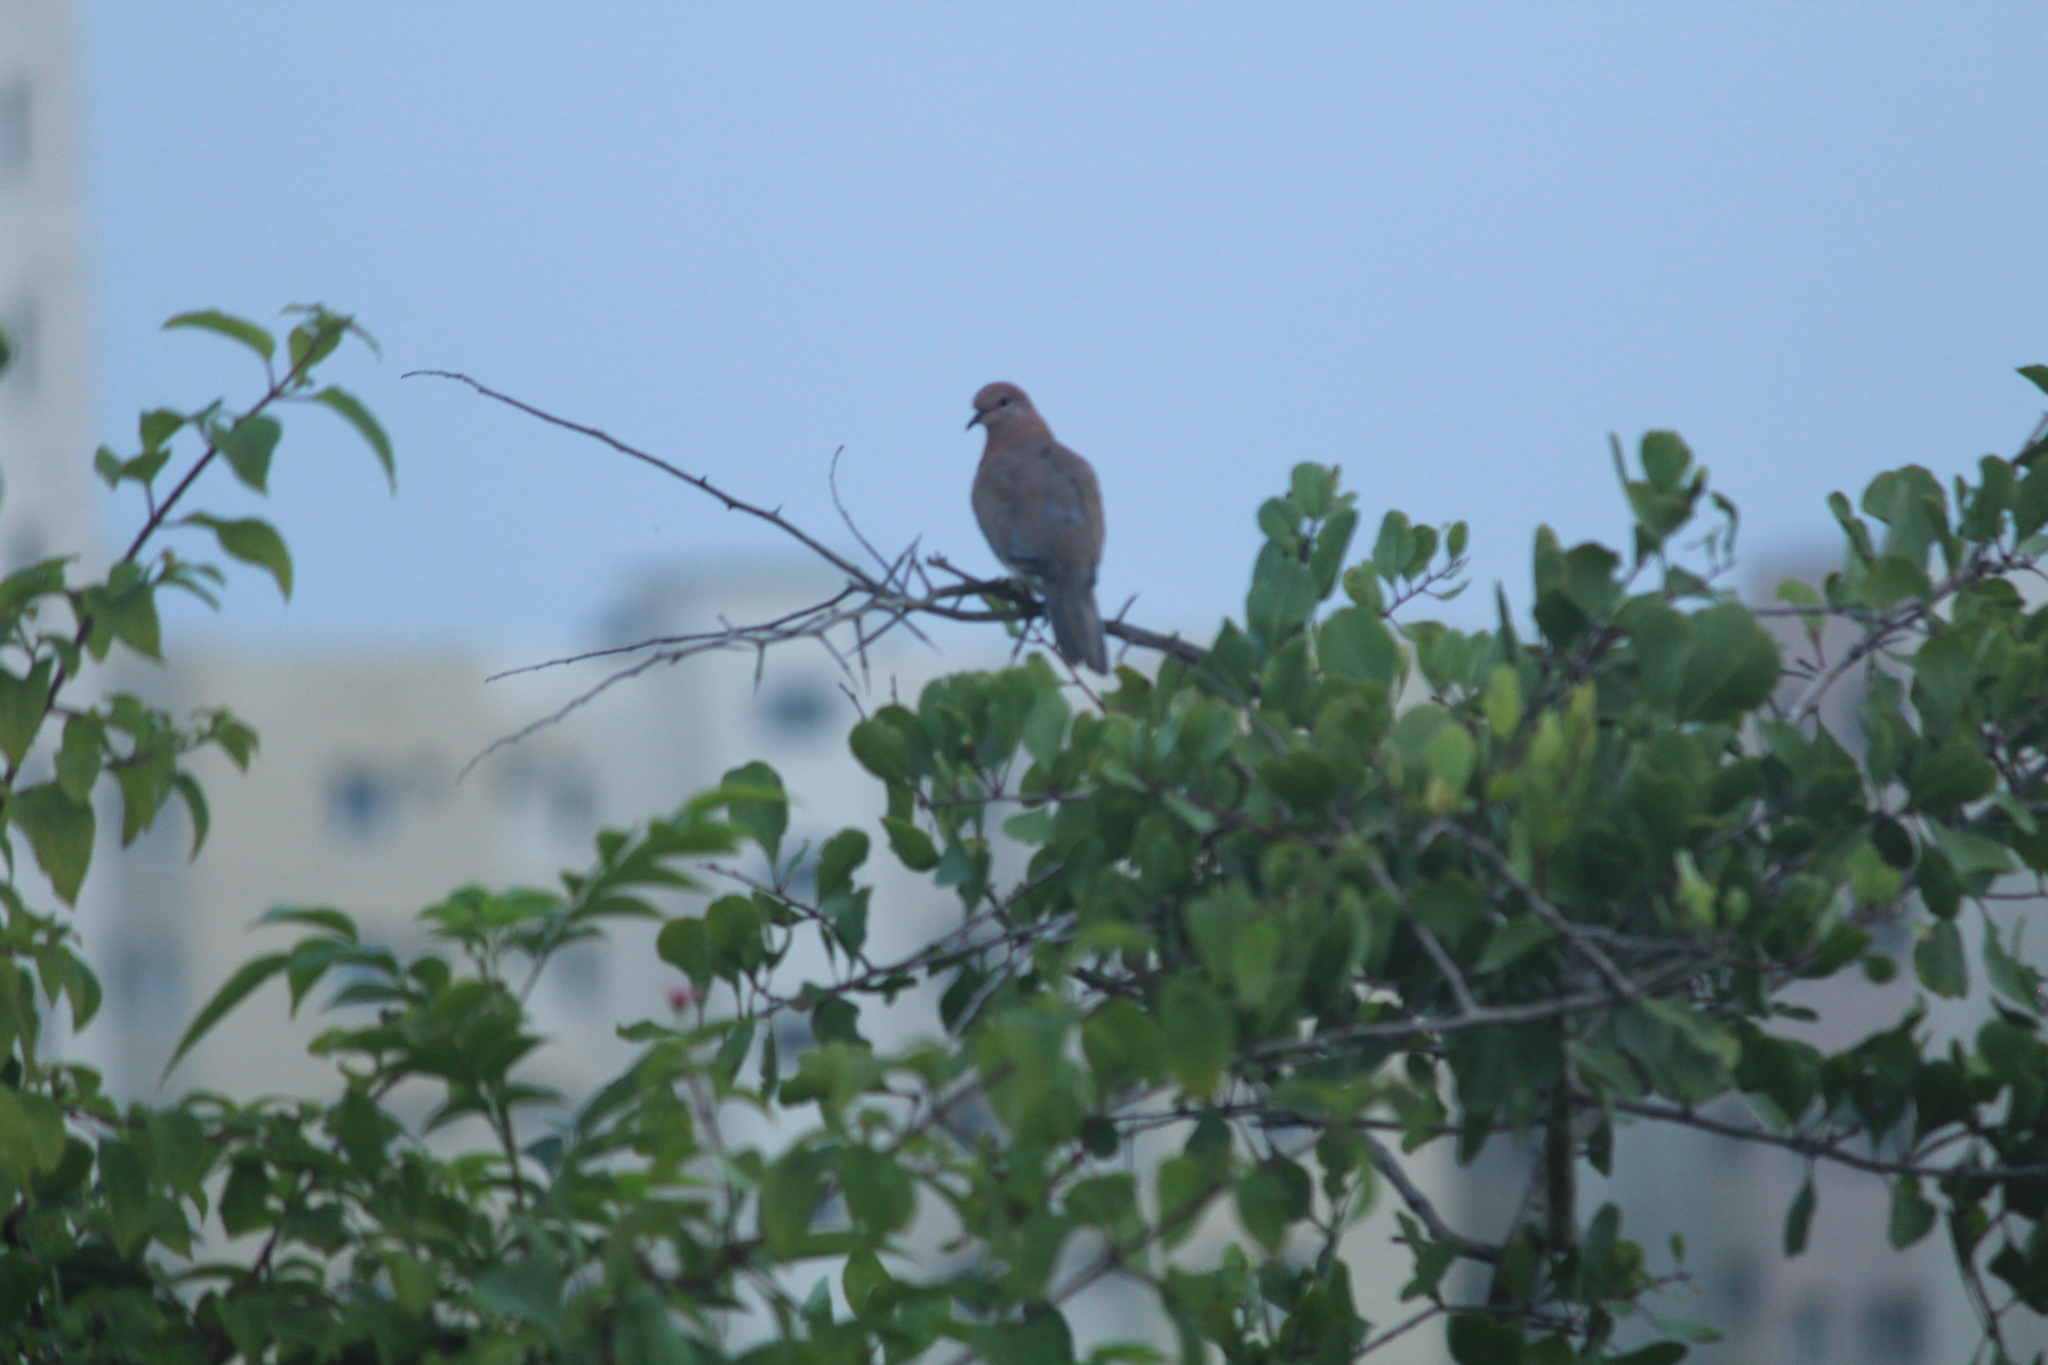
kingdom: Animalia
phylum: Chordata
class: Aves
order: Columbiformes
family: Columbidae
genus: Spilopelia
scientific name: Spilopelia senegalensis
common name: Laughing dove
